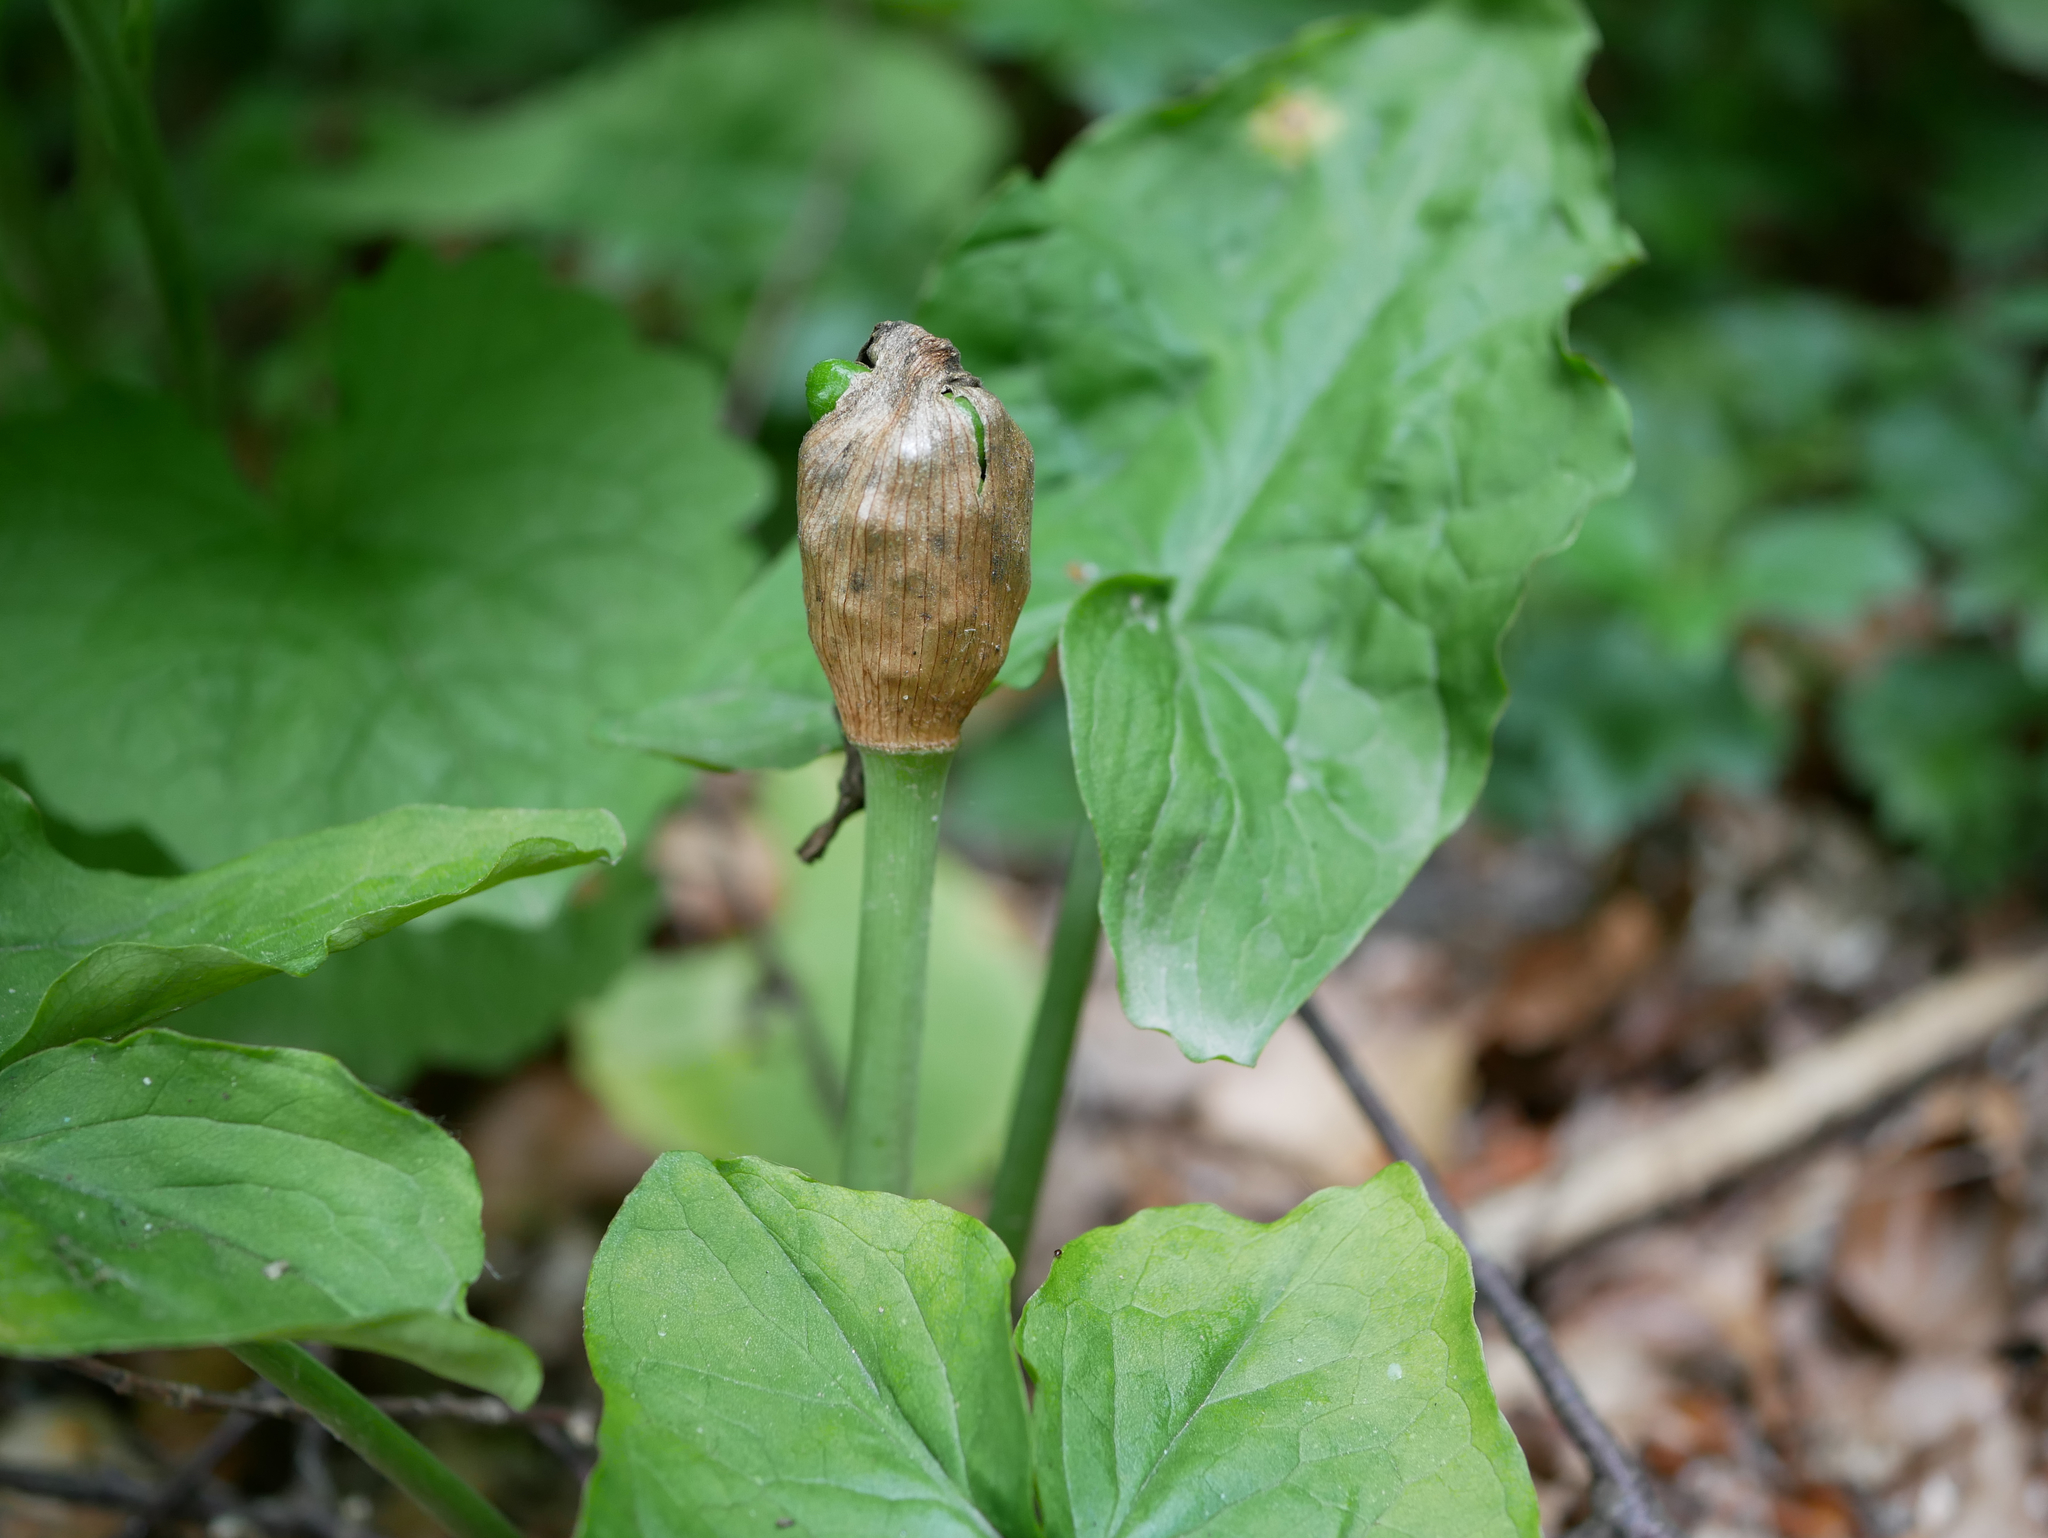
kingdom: Plantae
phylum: Tracheophyta
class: Liliopsida
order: Alismatales
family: Araceae
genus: Arum
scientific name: Arum maculatum
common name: Lords-and-ladies
